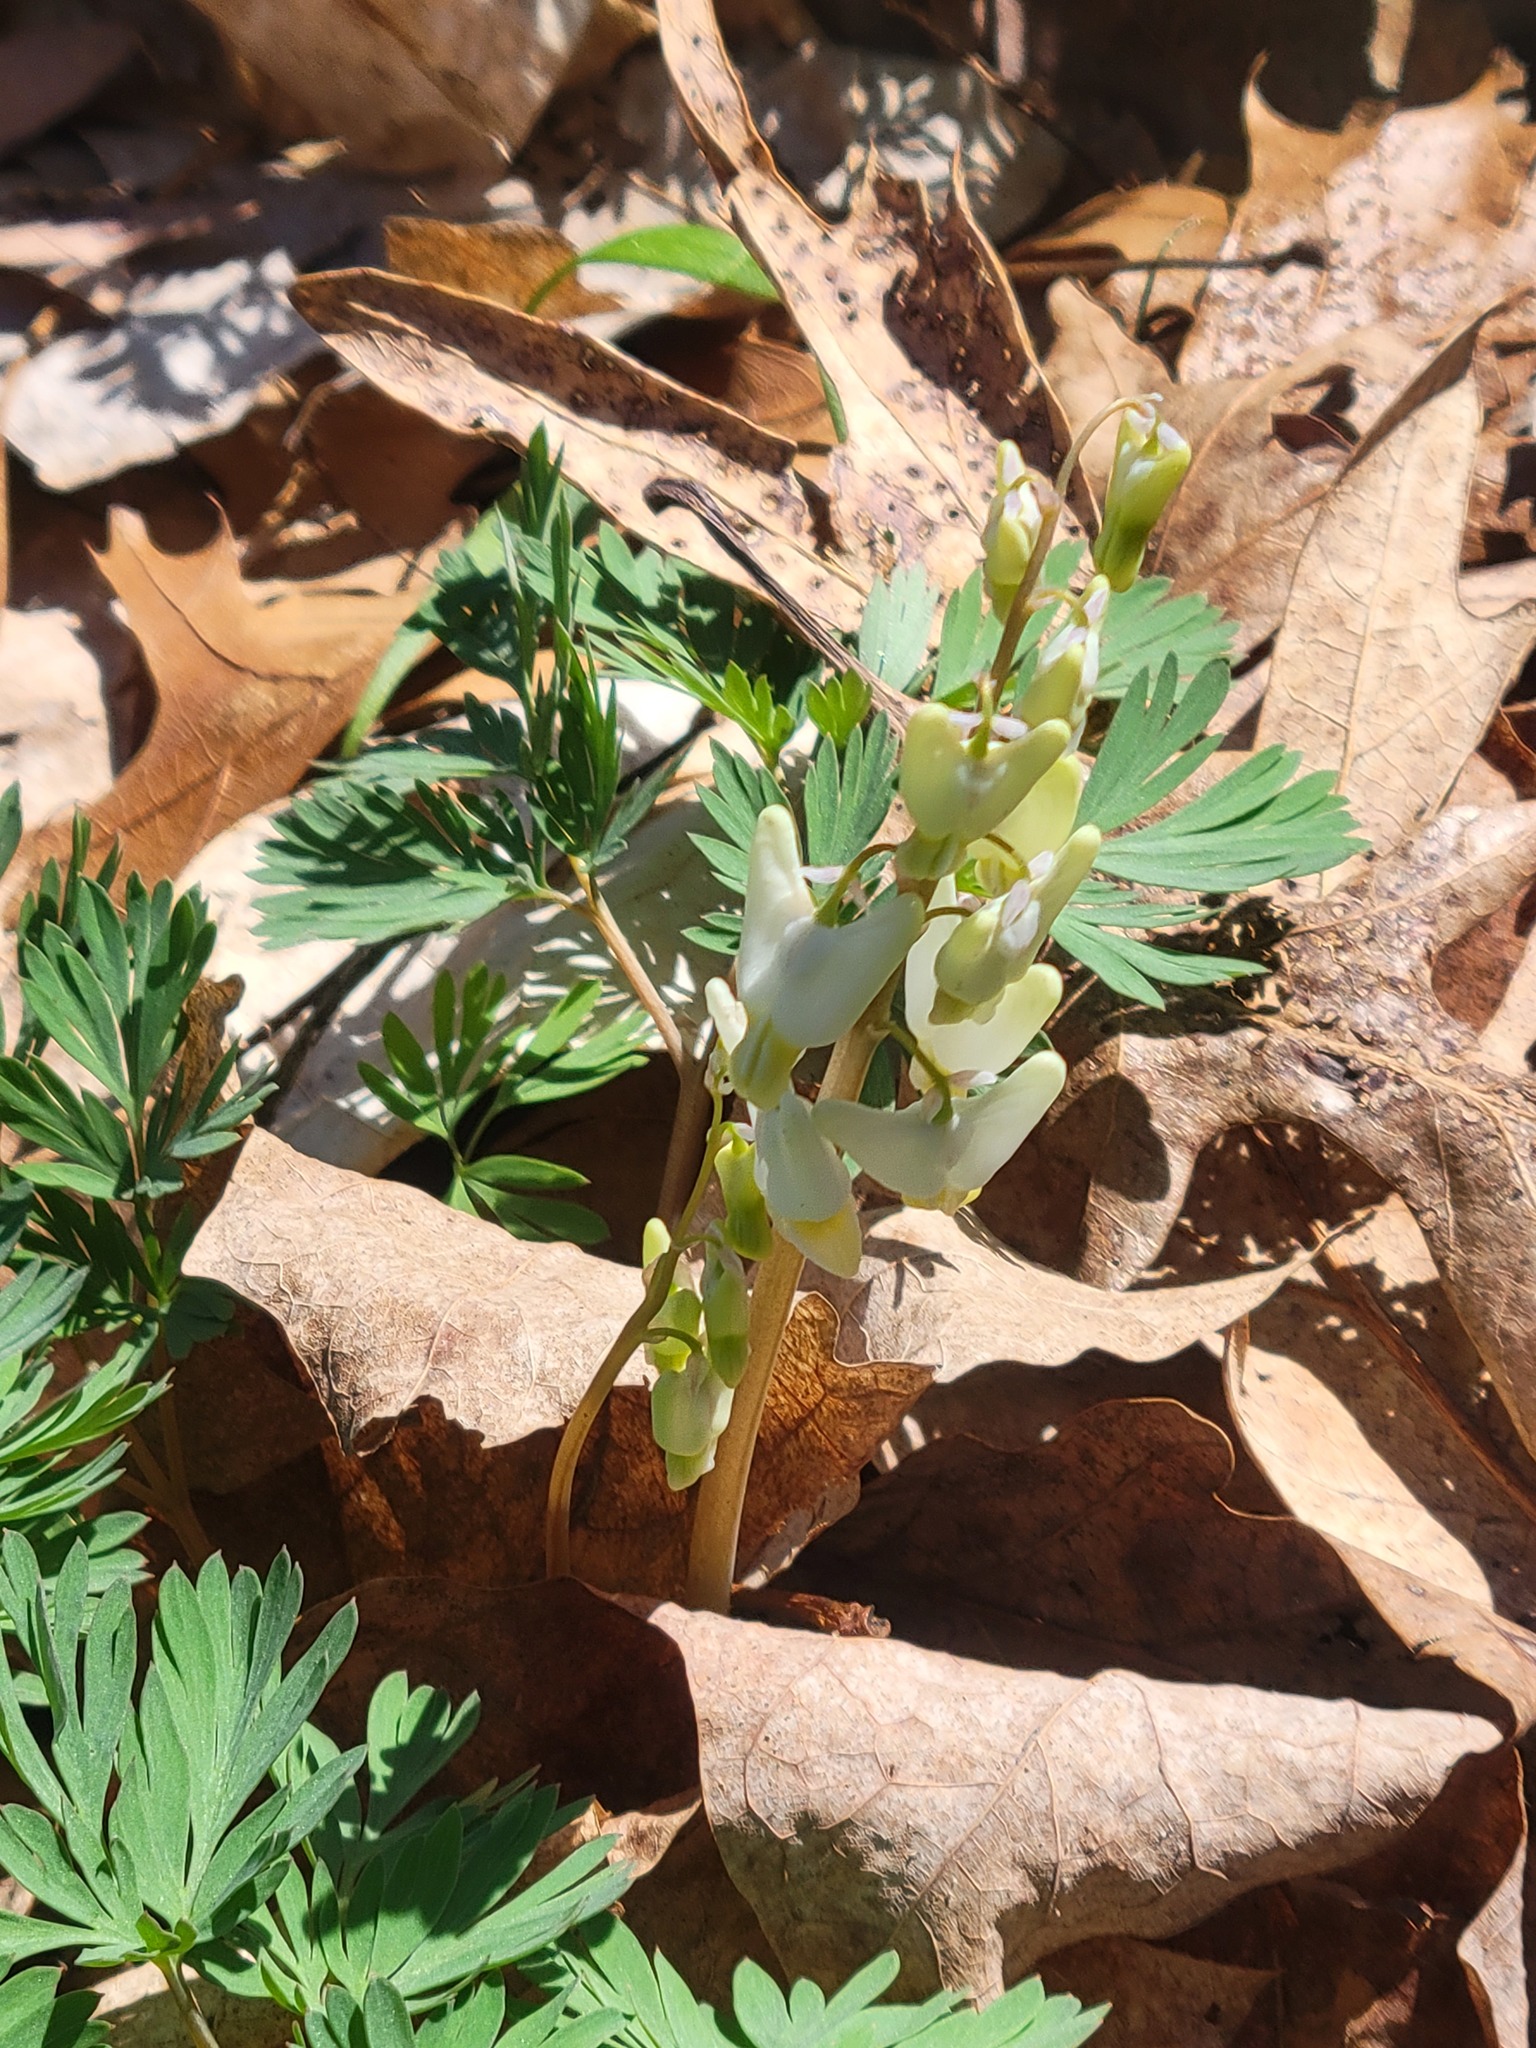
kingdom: Plantae
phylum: Tracheophyta
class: Magnoliopsida
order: Ranunculales
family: Papaveraceae
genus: Dicentra
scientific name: Dicentra cucullaria
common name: Dutchman's breeches
